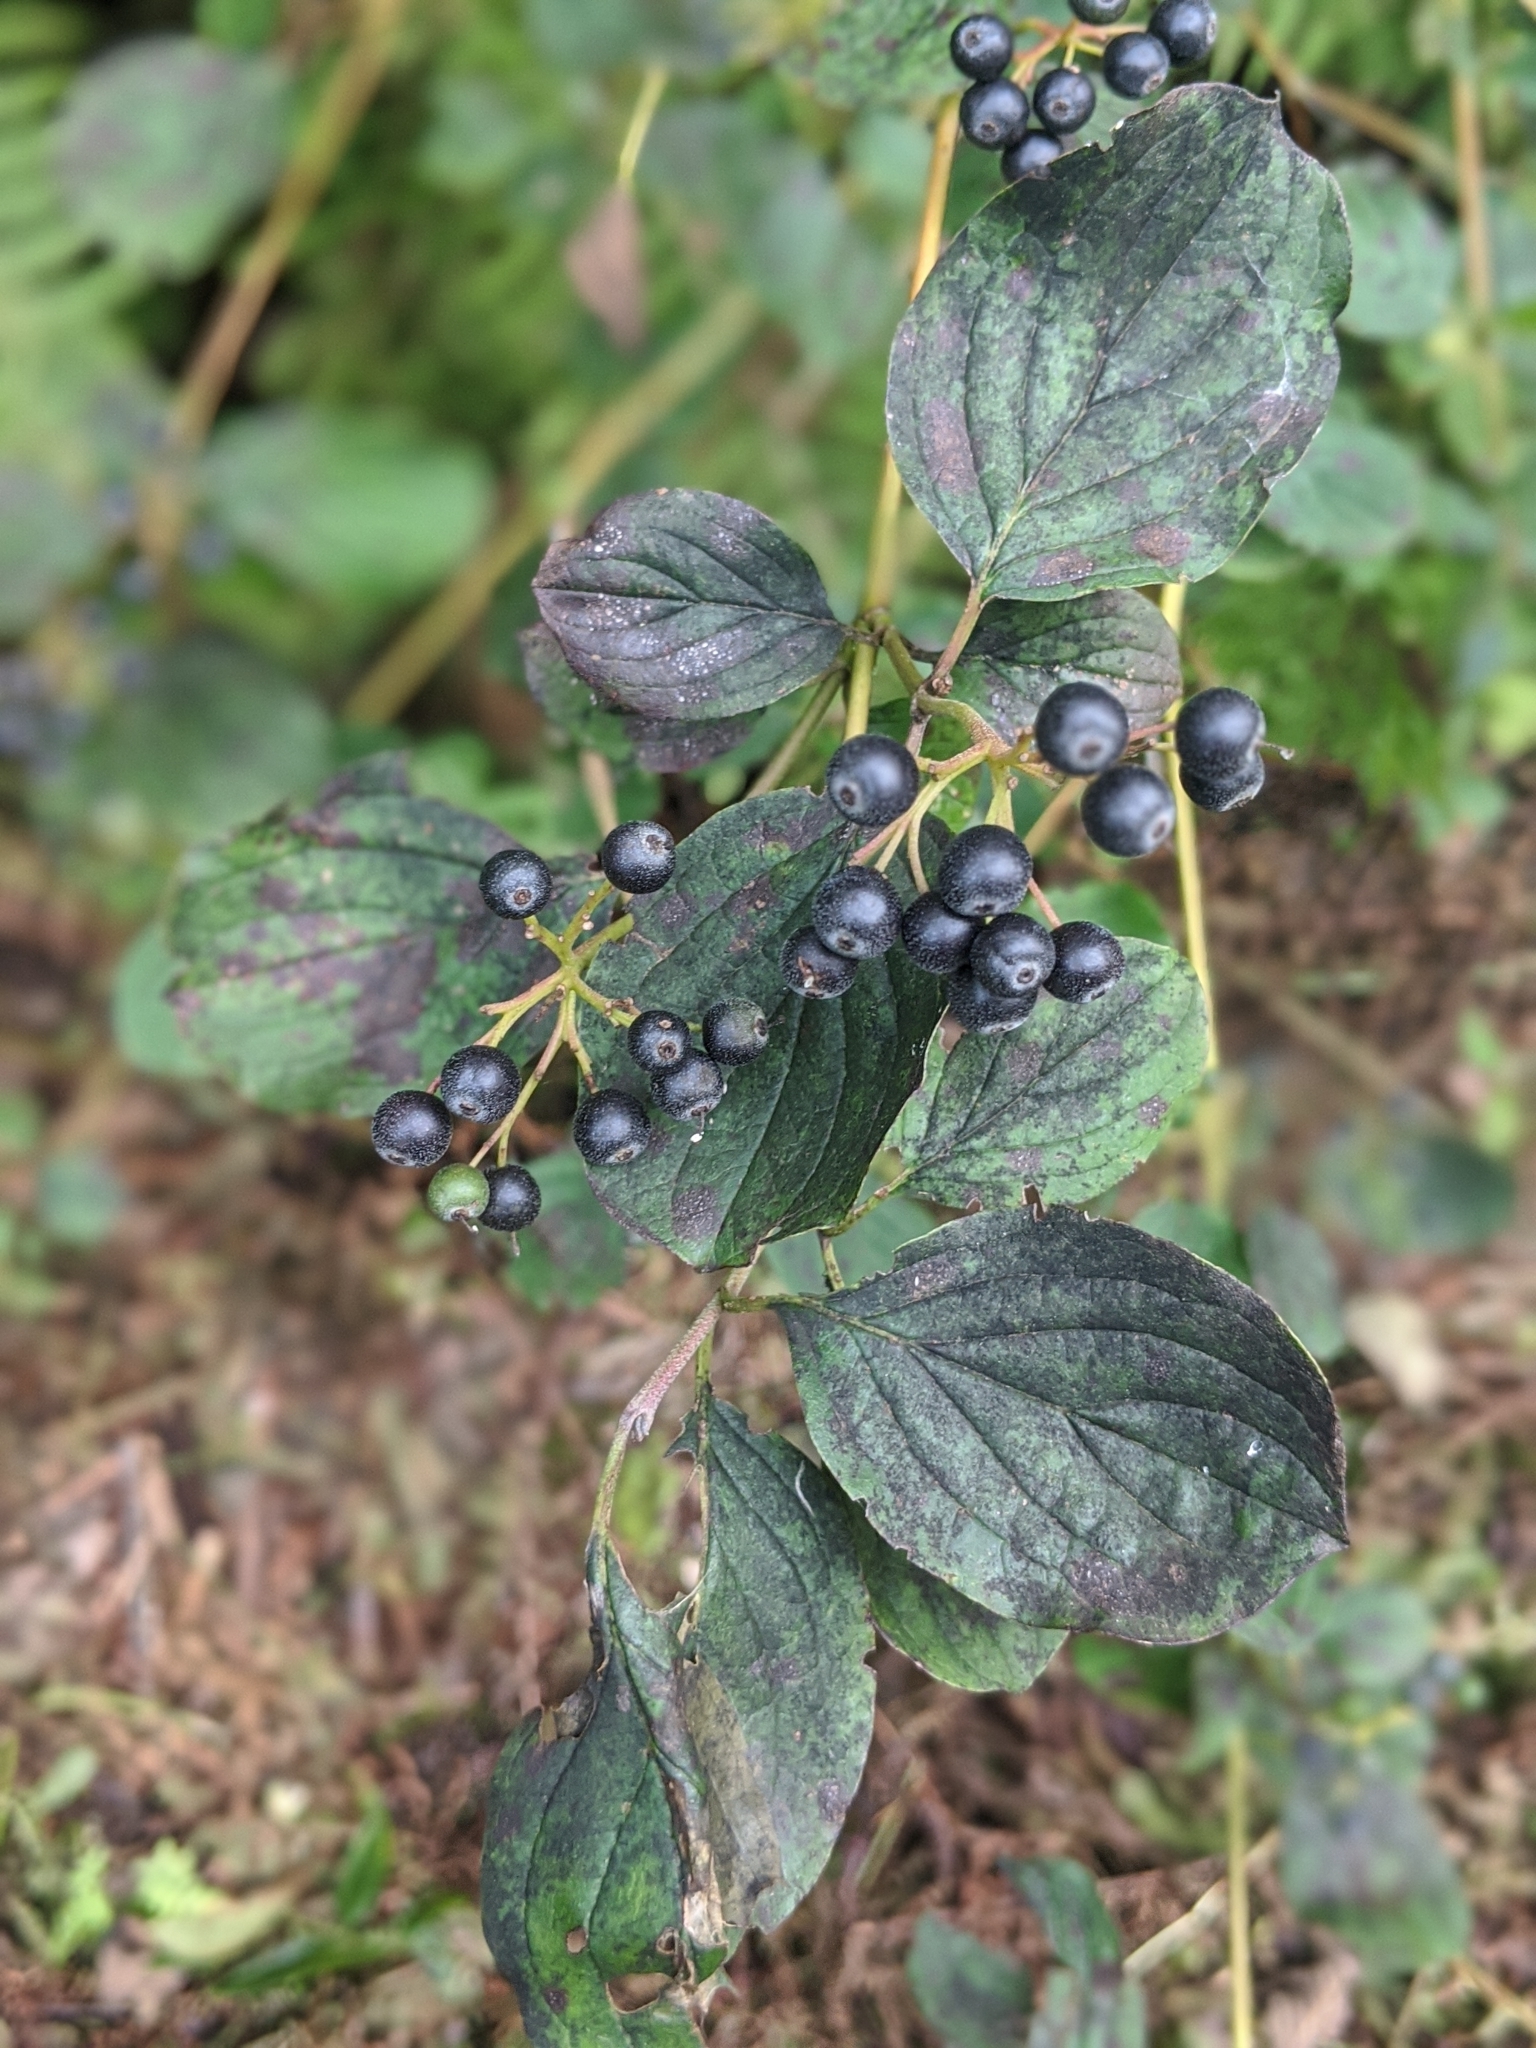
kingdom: Plantae
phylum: Tracheophyta
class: Magnoliopsida
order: Cornales
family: Cornaceae
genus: Cornus
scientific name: Cornus sanguinea
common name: Dogwood
